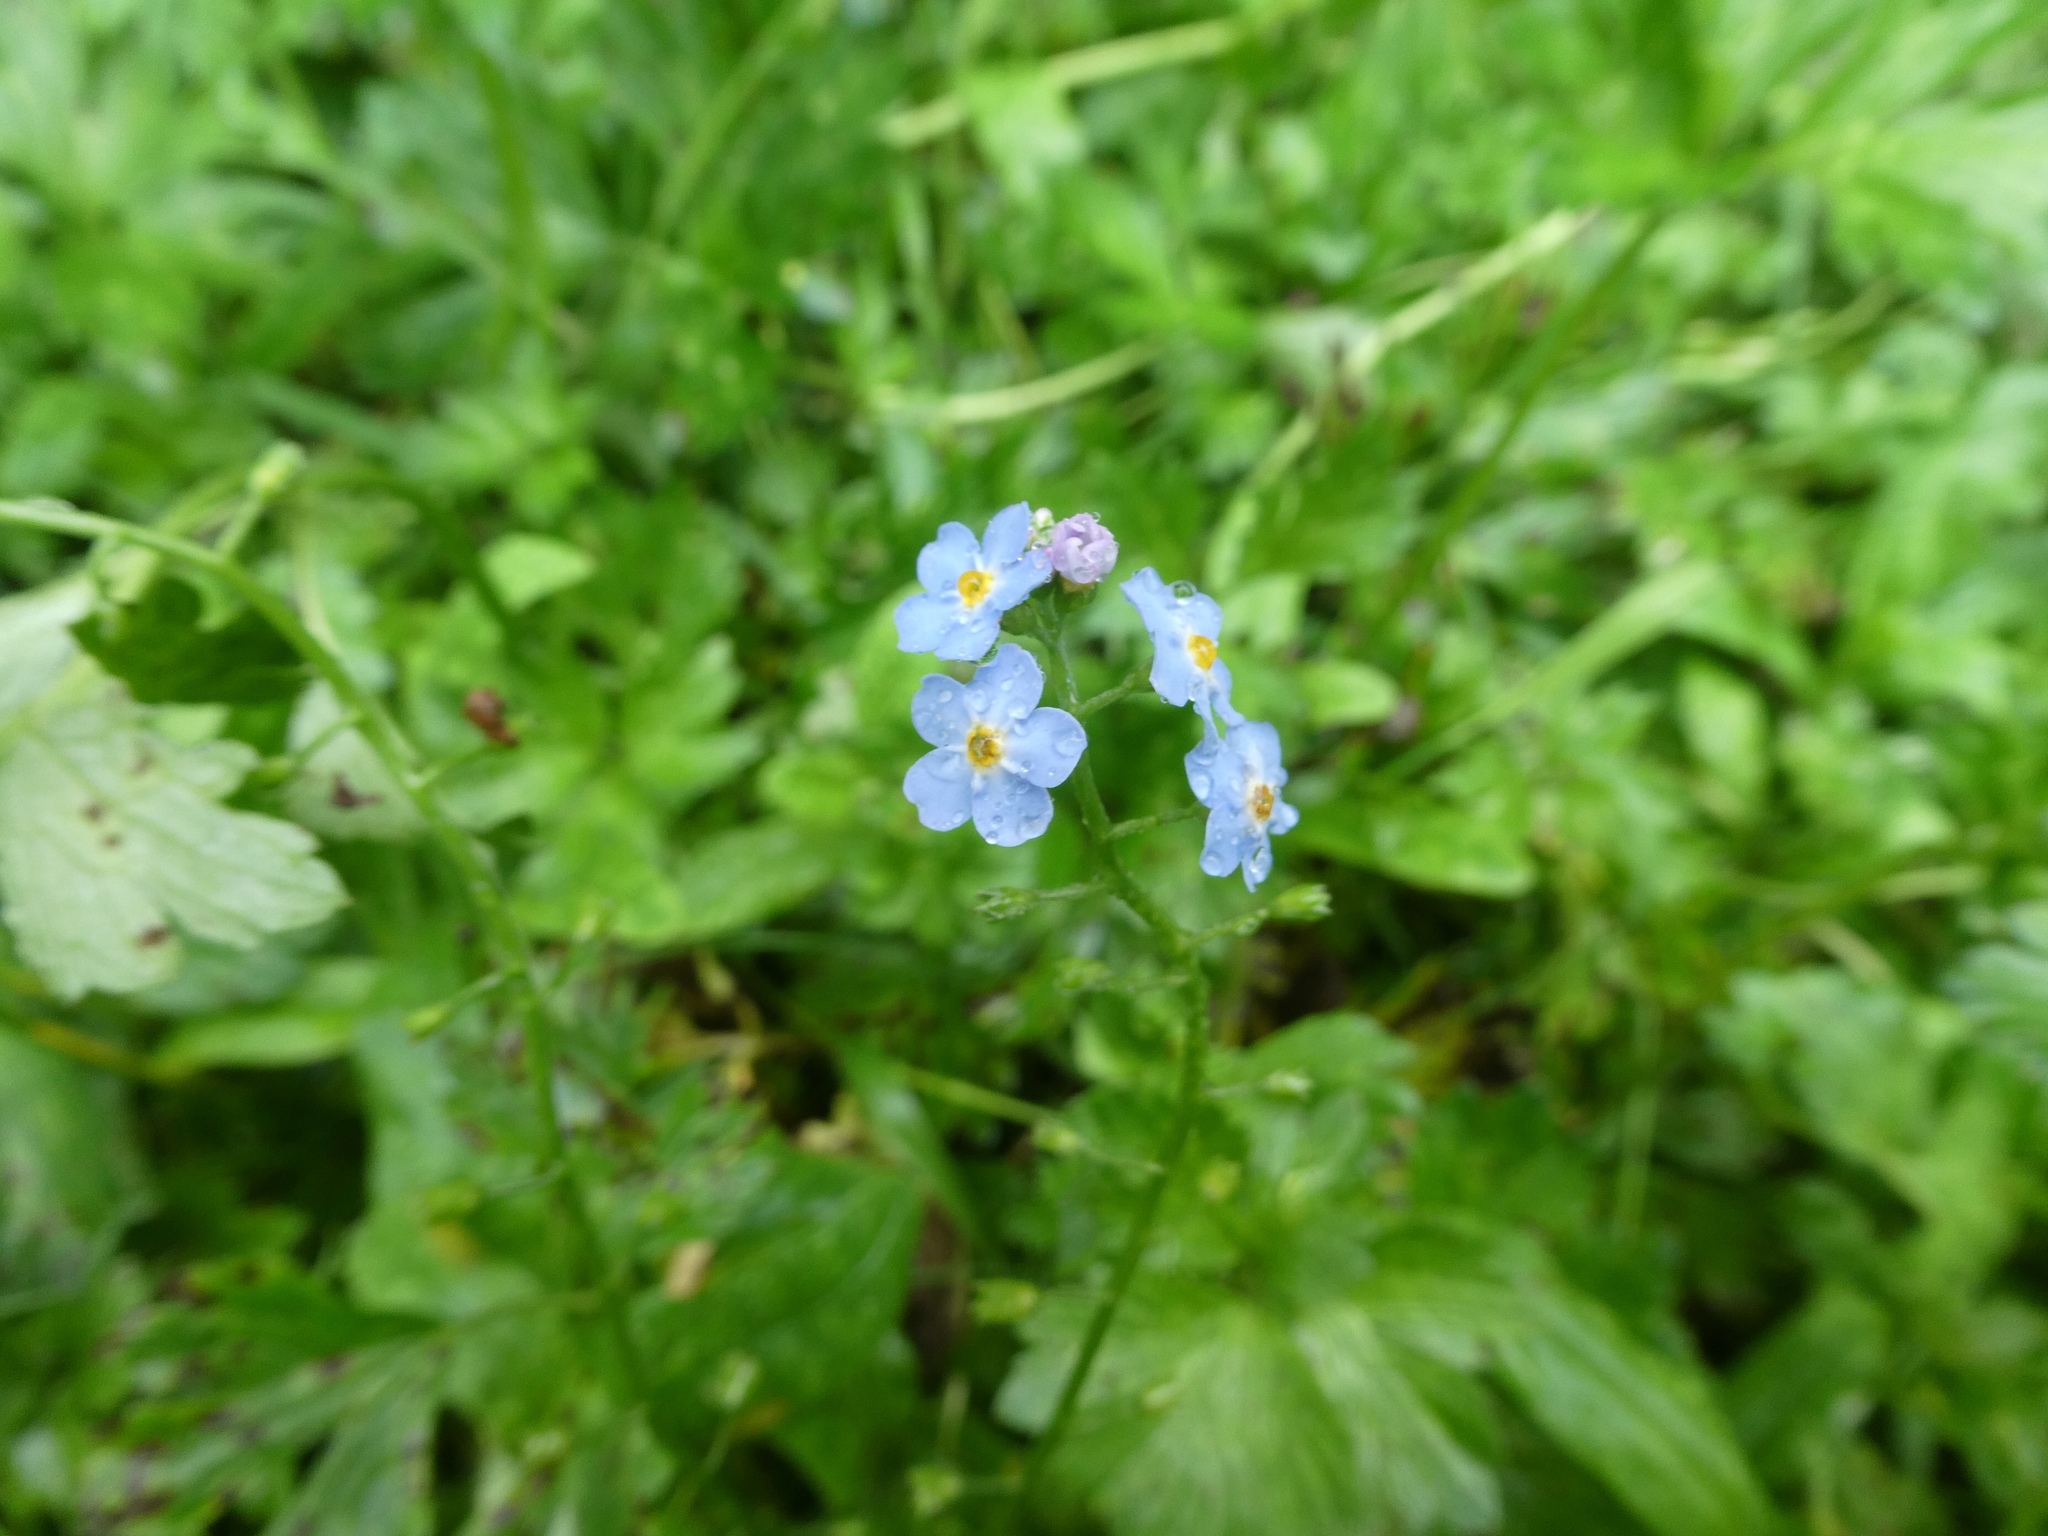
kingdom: Plantae
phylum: Tracheophyta
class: Magnoliopsida
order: Boraginales
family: Boraginaceae
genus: Myosotis
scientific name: Myosotis scorpioides
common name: Water forget-me-not
